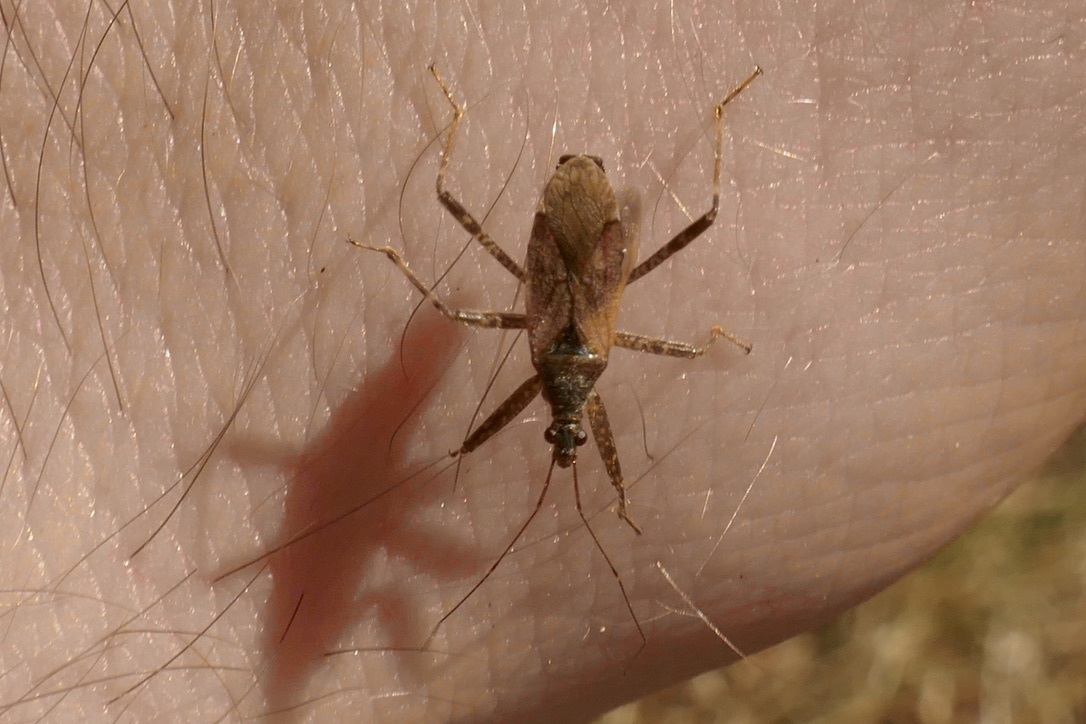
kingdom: Animalia
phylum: Arthropoda
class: Insecta
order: Hemiptera
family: Nabidae
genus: Himacerus
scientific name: Himacerus apterus
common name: Tree damsel bug
